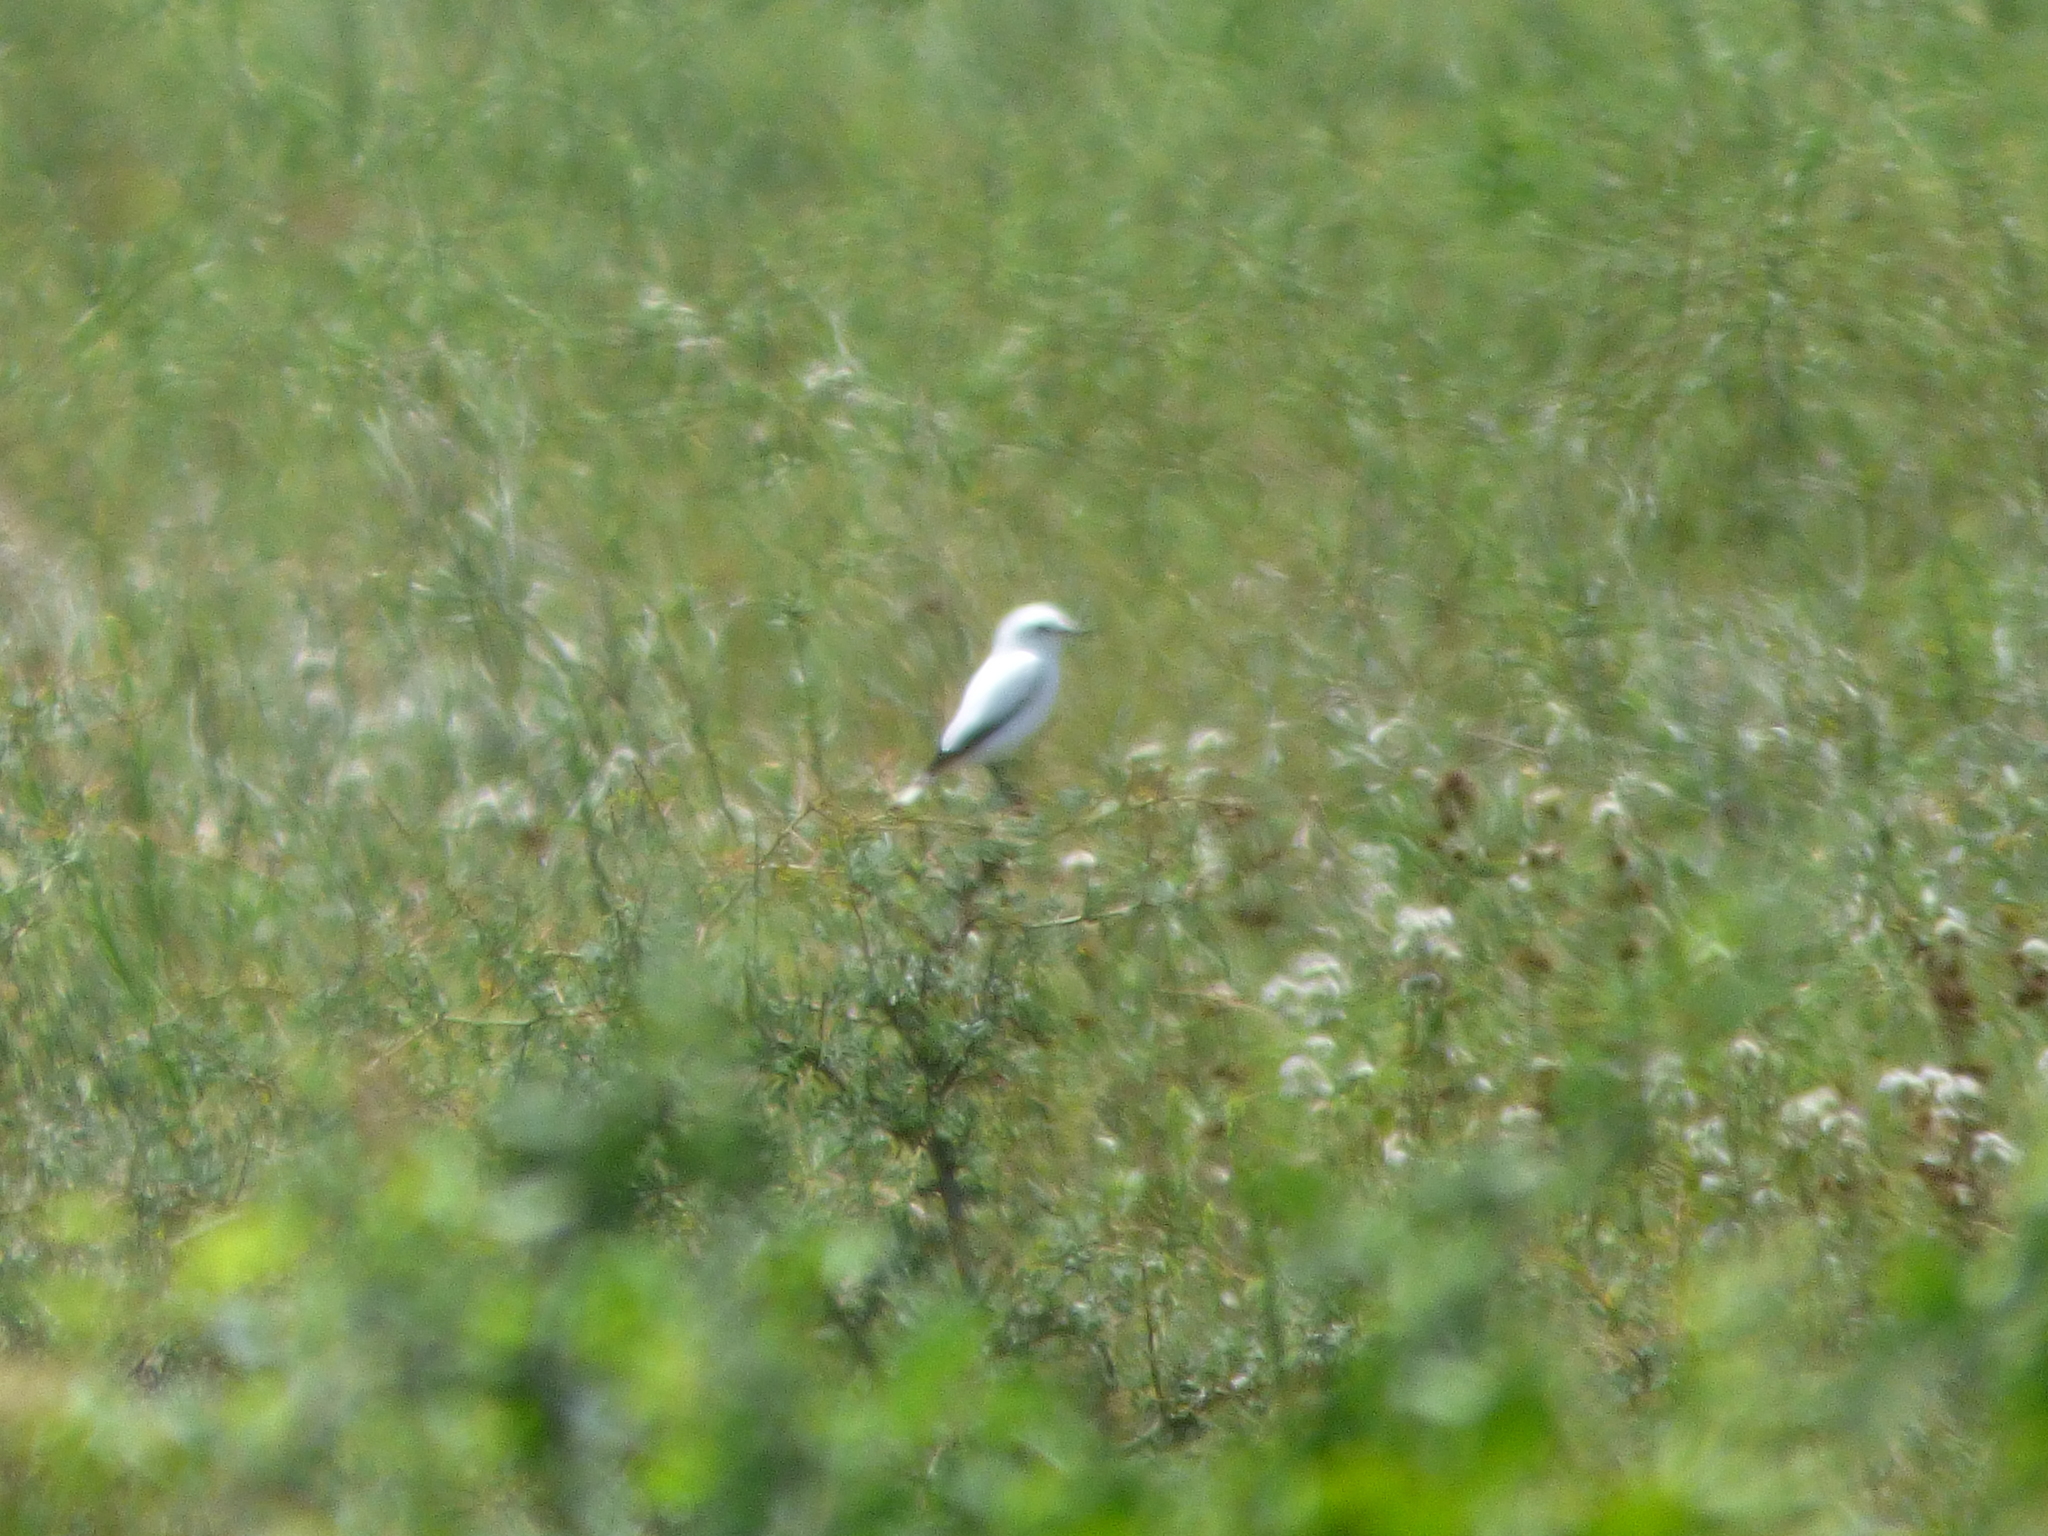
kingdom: Animalia
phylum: Chordata
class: Aves
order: Passeriformes
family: Tyrannidae
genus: Xolmis
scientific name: Xolmis irupero
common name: White monjita
